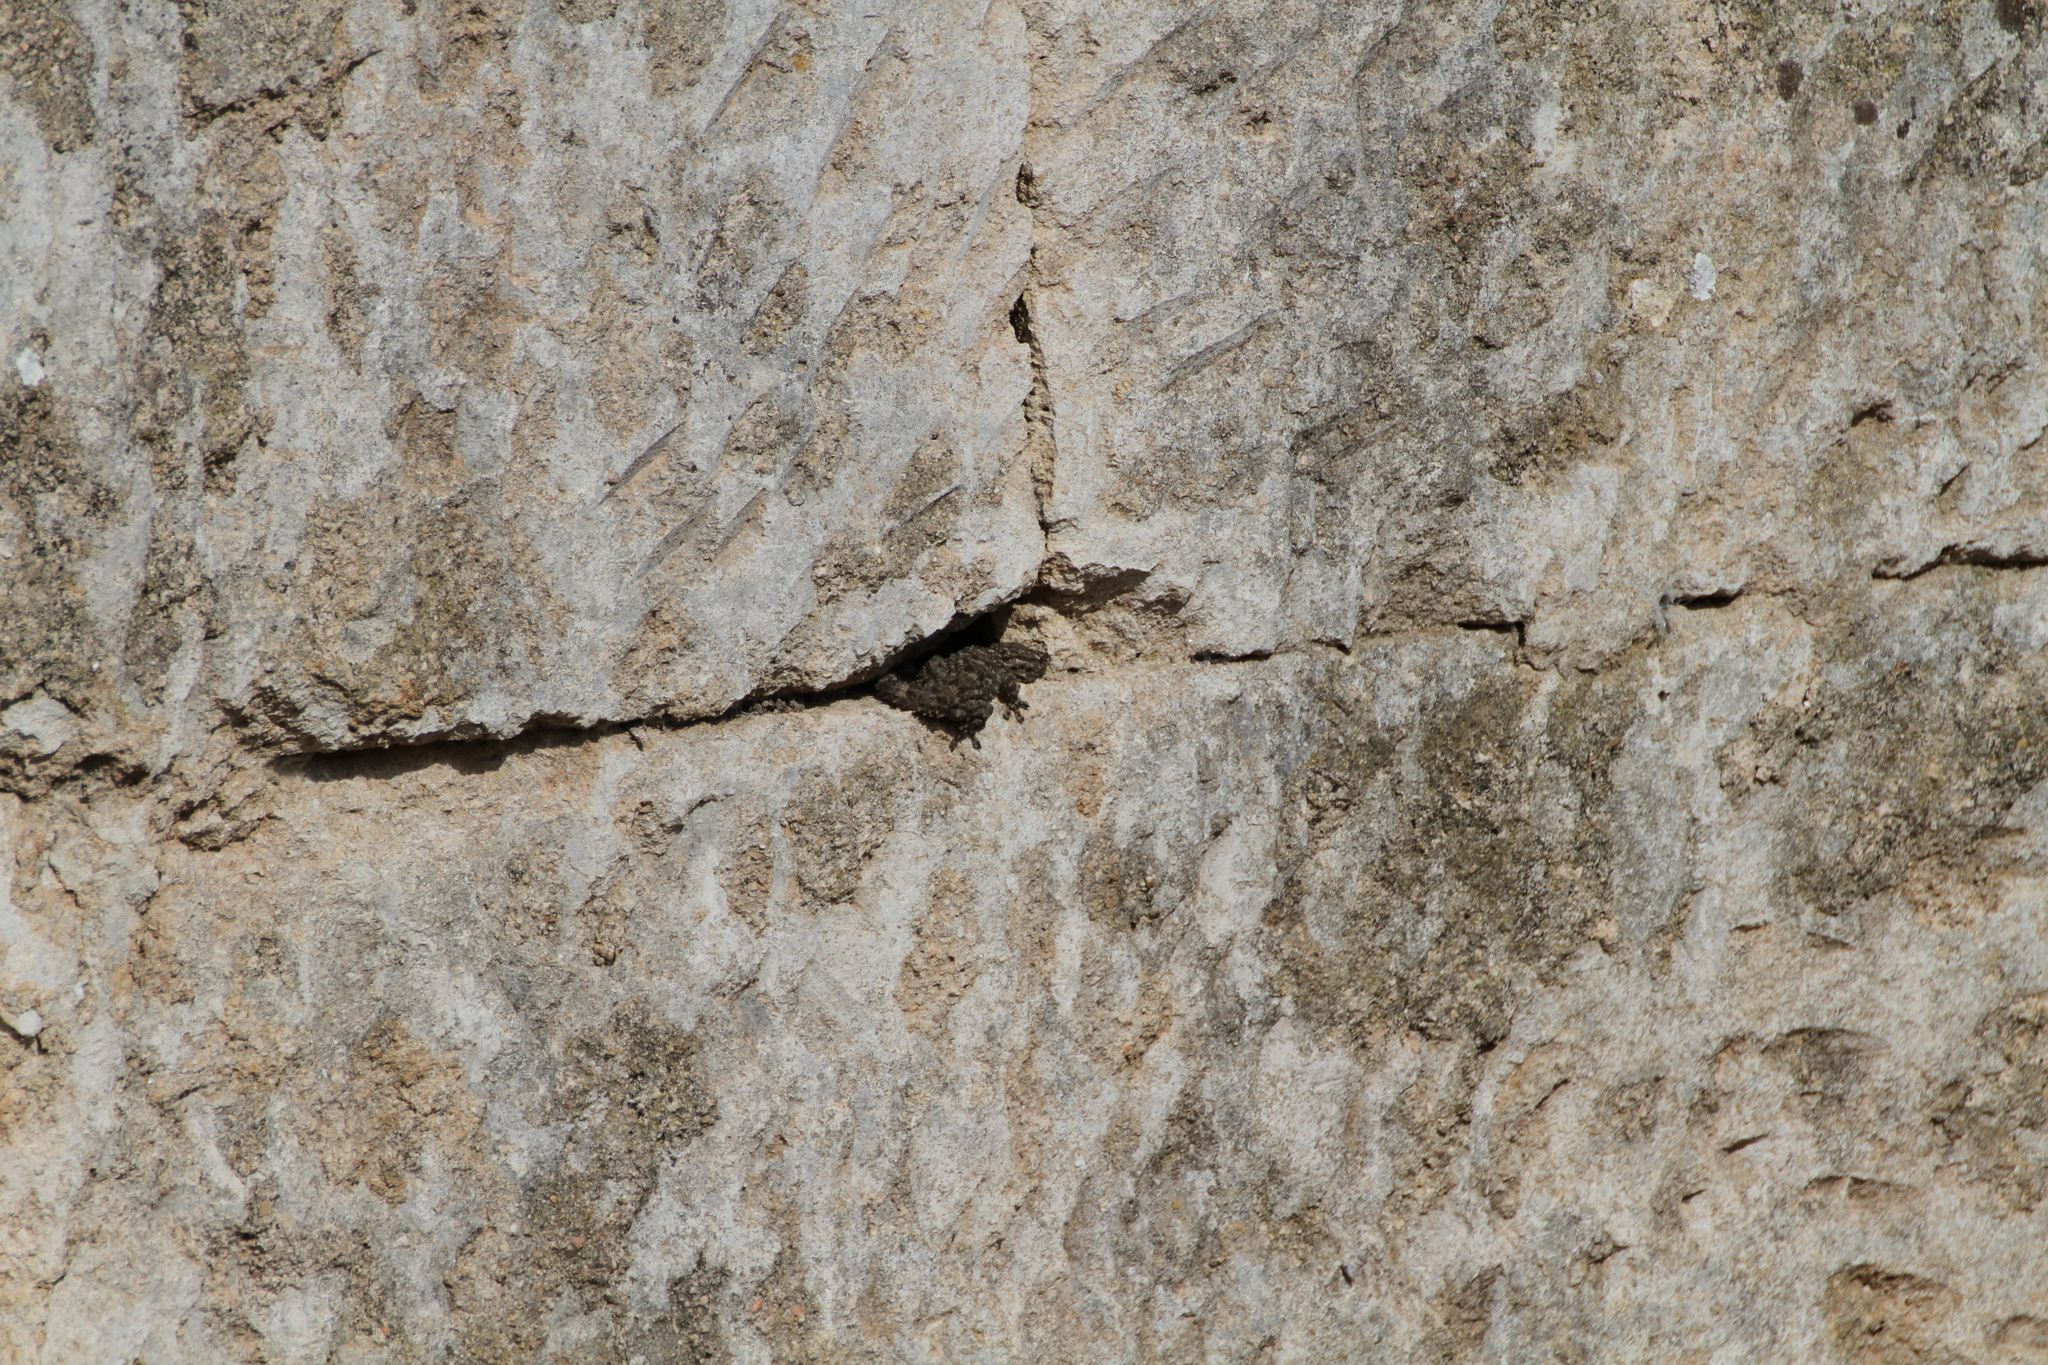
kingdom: Animalia
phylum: Chordata
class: Squamata
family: Phyllodactylidae
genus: Tarentola
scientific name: Tarentola mauritanica
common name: Moorish gecko
